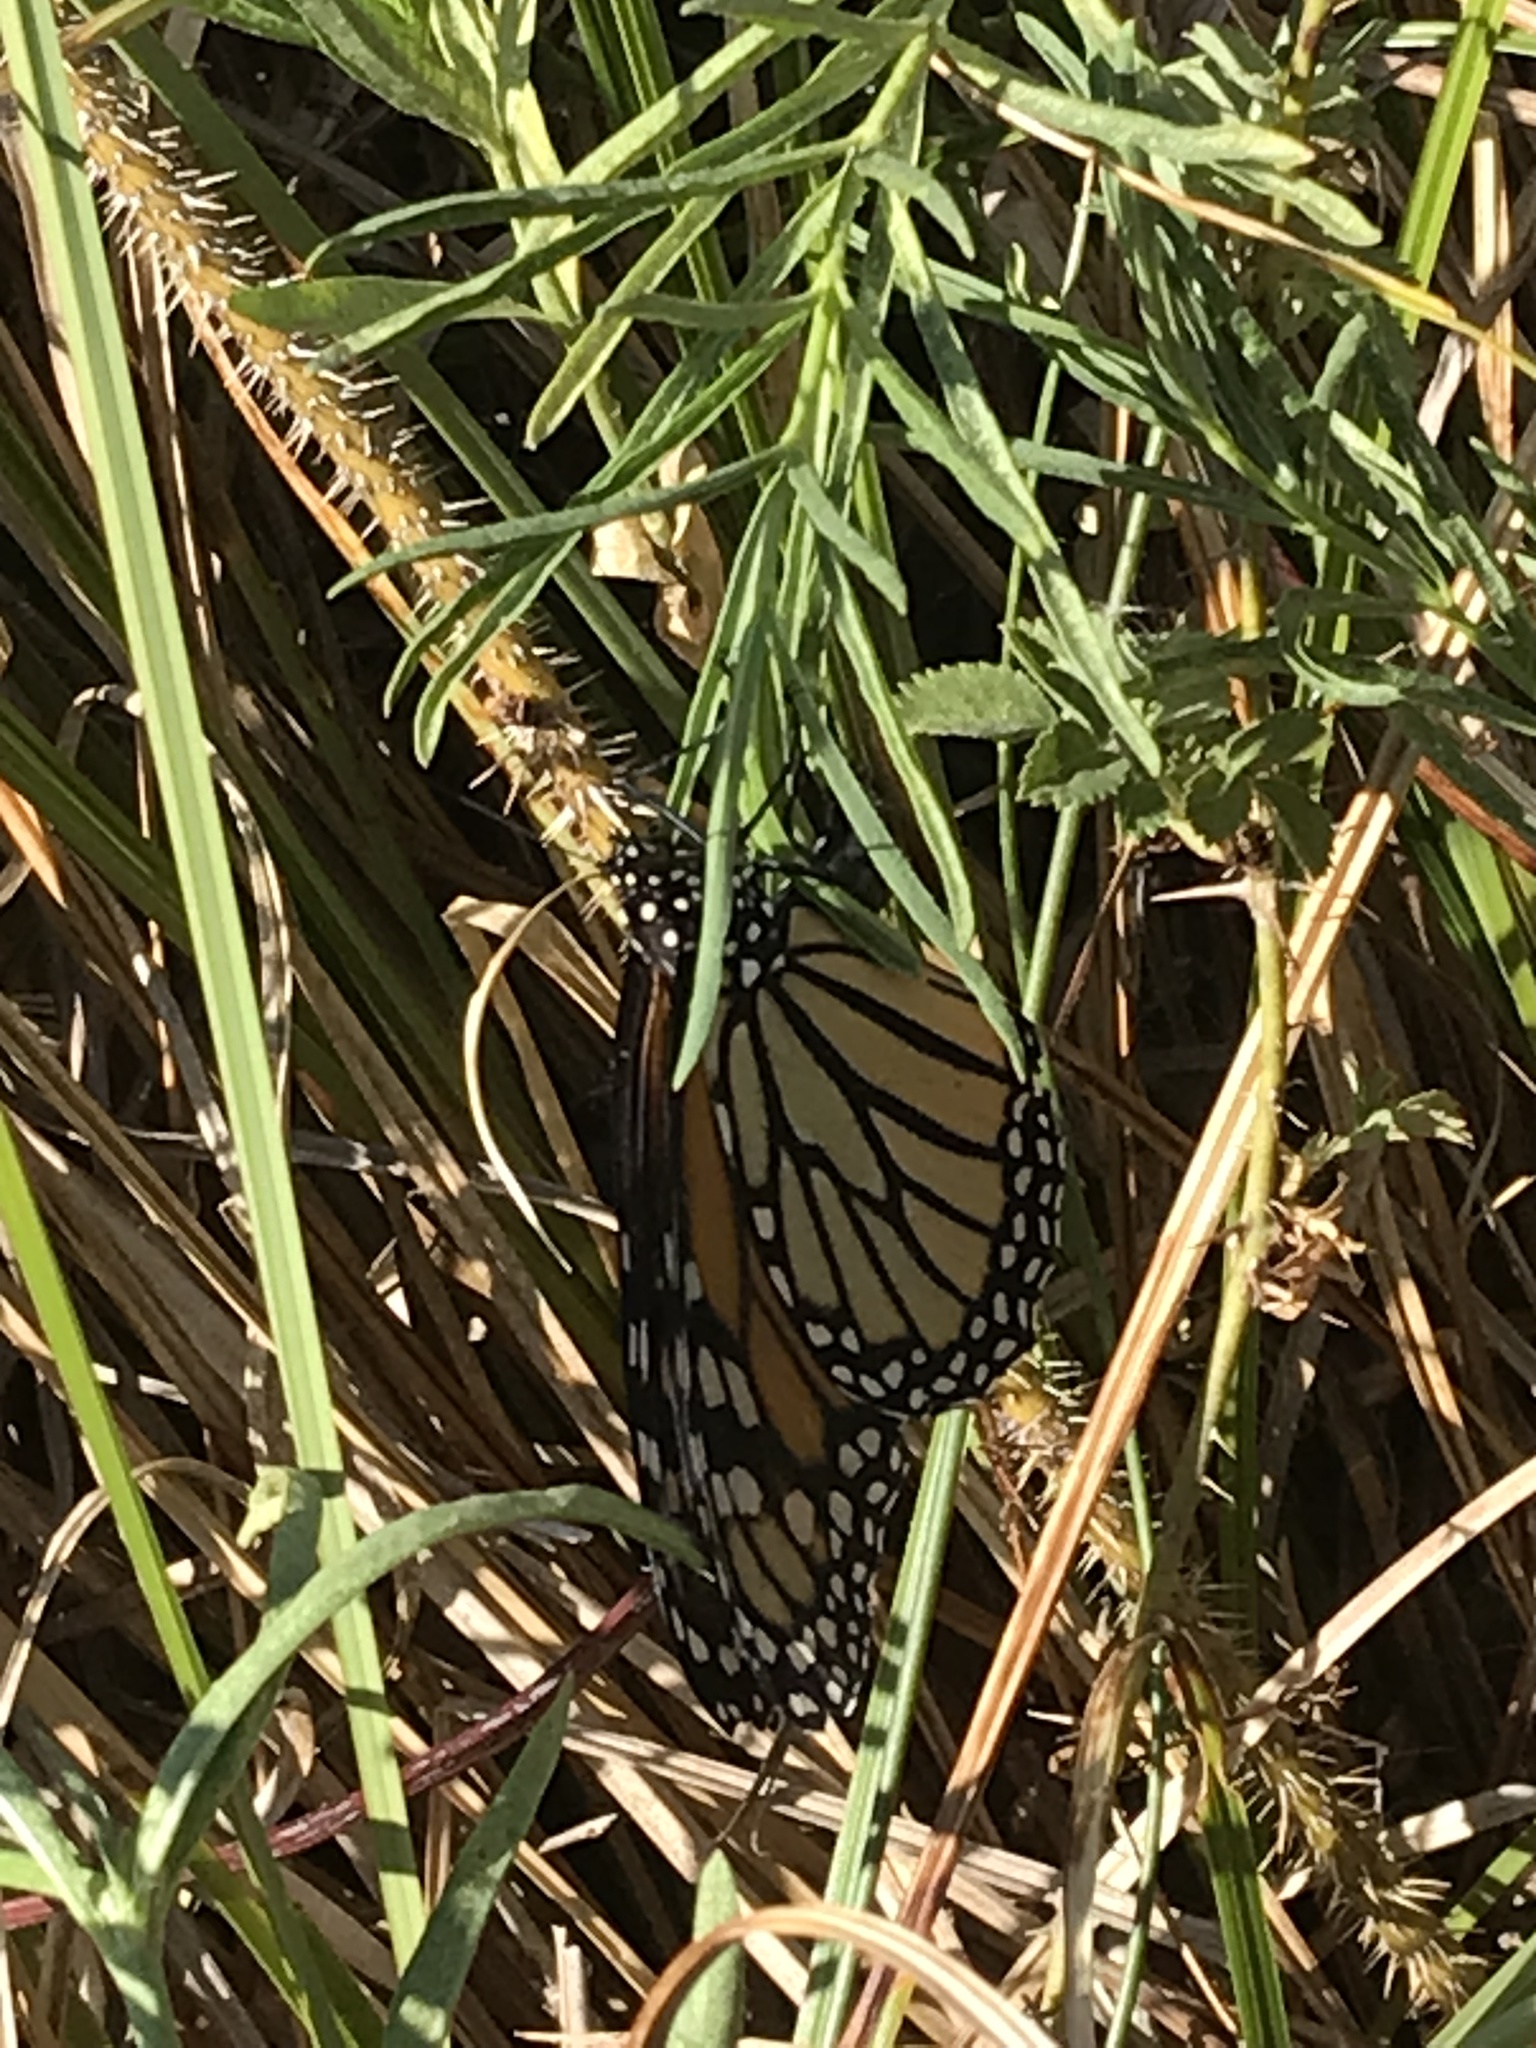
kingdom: Animalia
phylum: Arthropoda
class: Insecta
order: Lepidoptera
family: Nymphalidae
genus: Danaus
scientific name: Danaus plexippus
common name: Monarch
